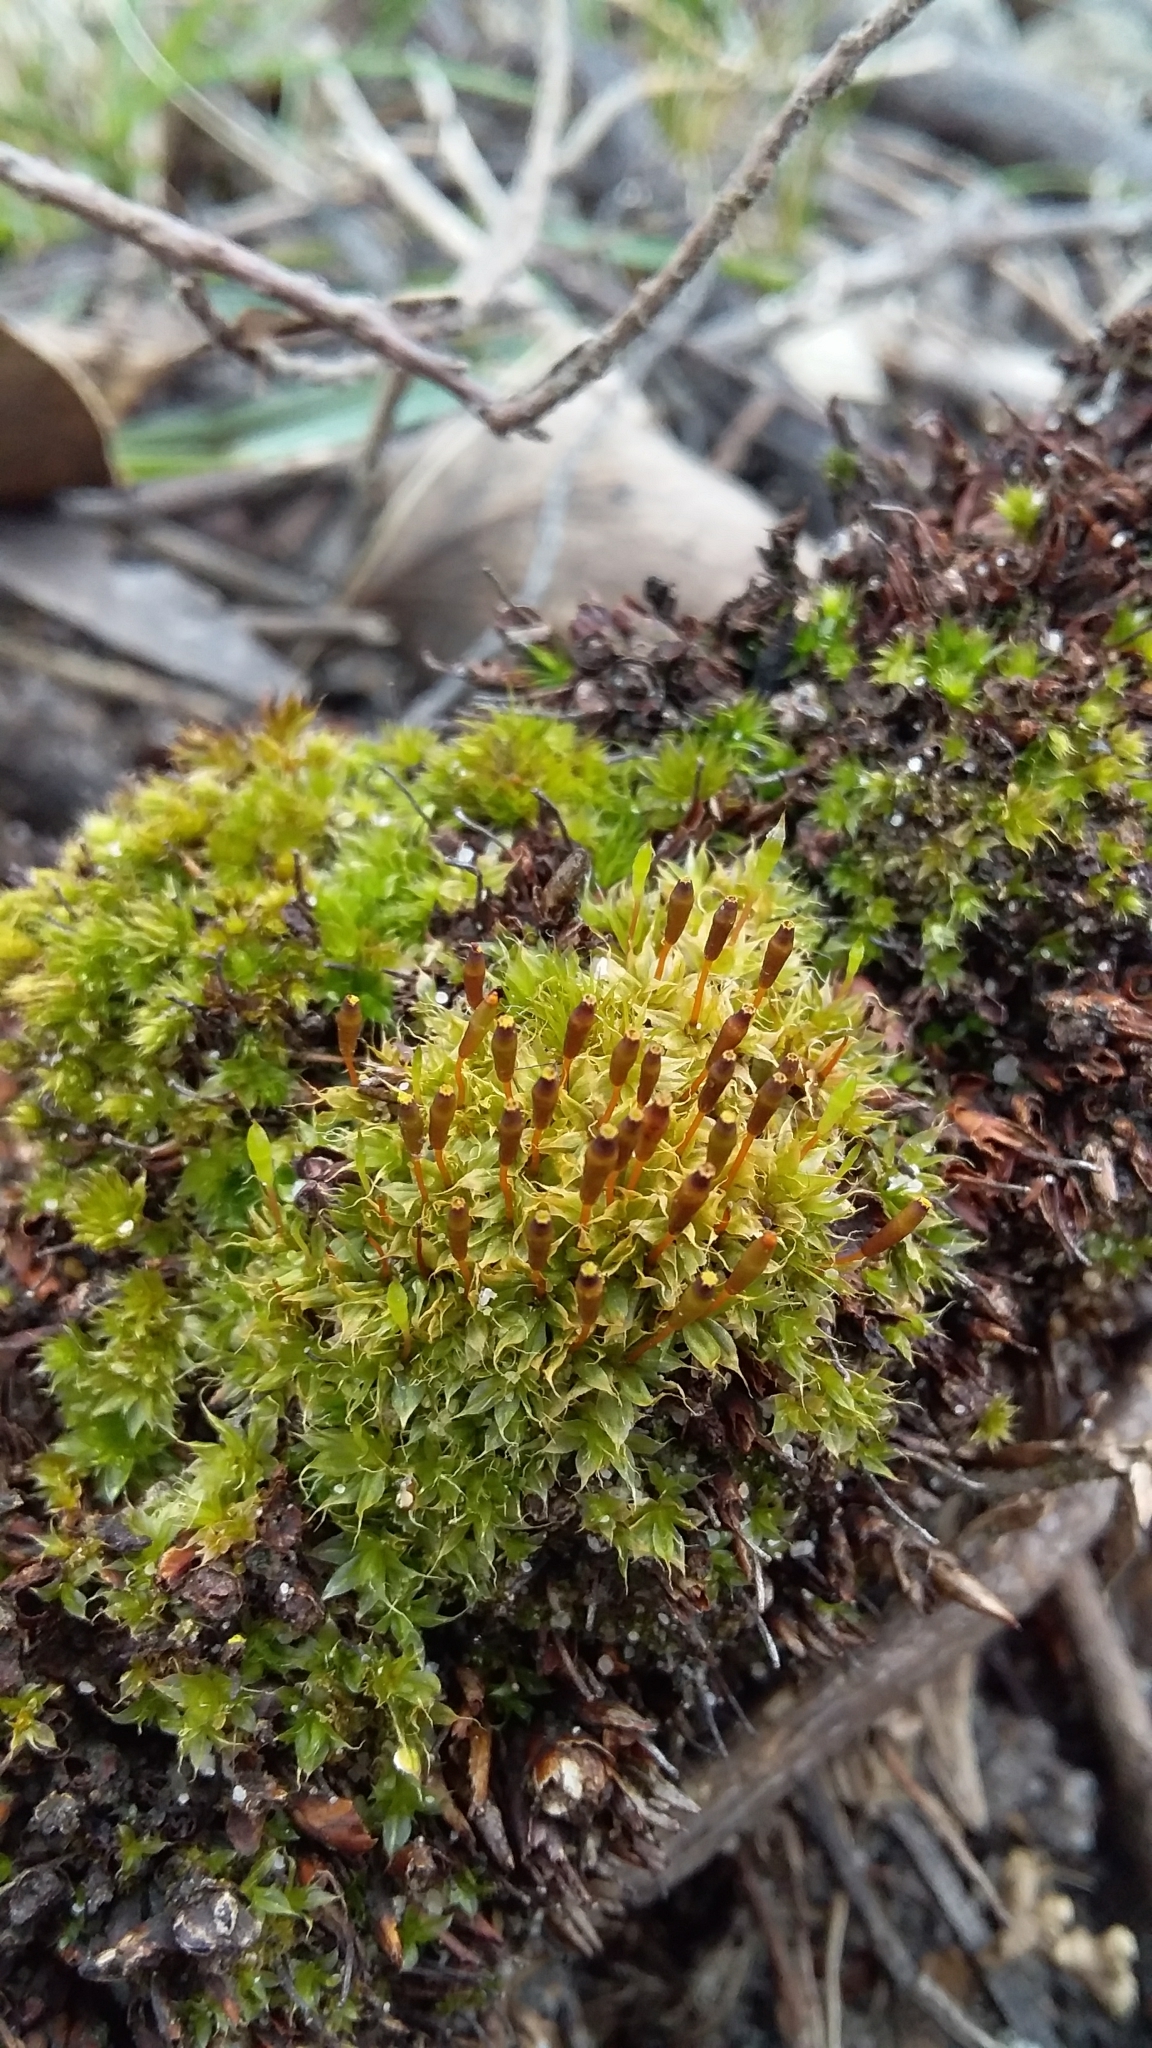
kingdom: Plantae
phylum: Bryophyta
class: Bryopsida
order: Splachnales
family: Splachnaceae
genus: Tayloria
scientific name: Tayloria octoblephara
